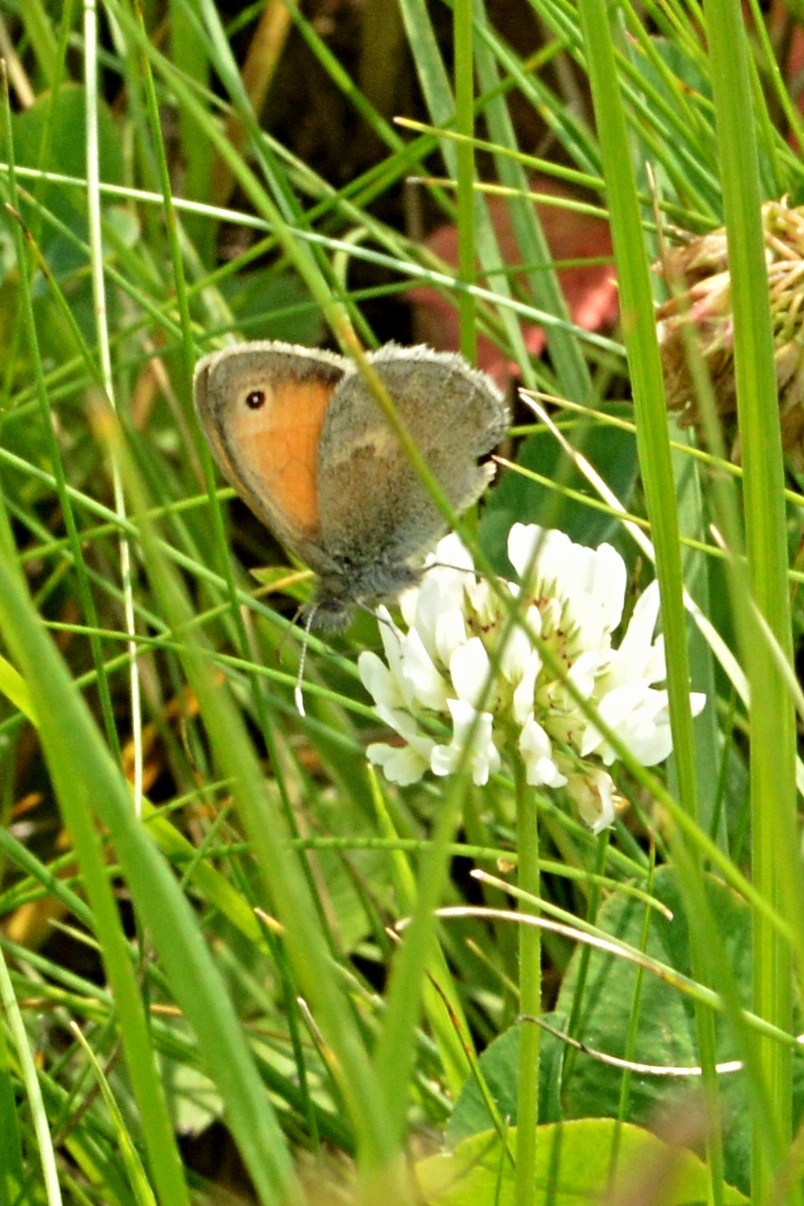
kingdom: Animalia
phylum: Arthropoda
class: Insecta
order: Lepidoptera
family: Nymphalidae
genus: Coenonympha
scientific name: Coenonympha pamphilus
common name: Small heath
